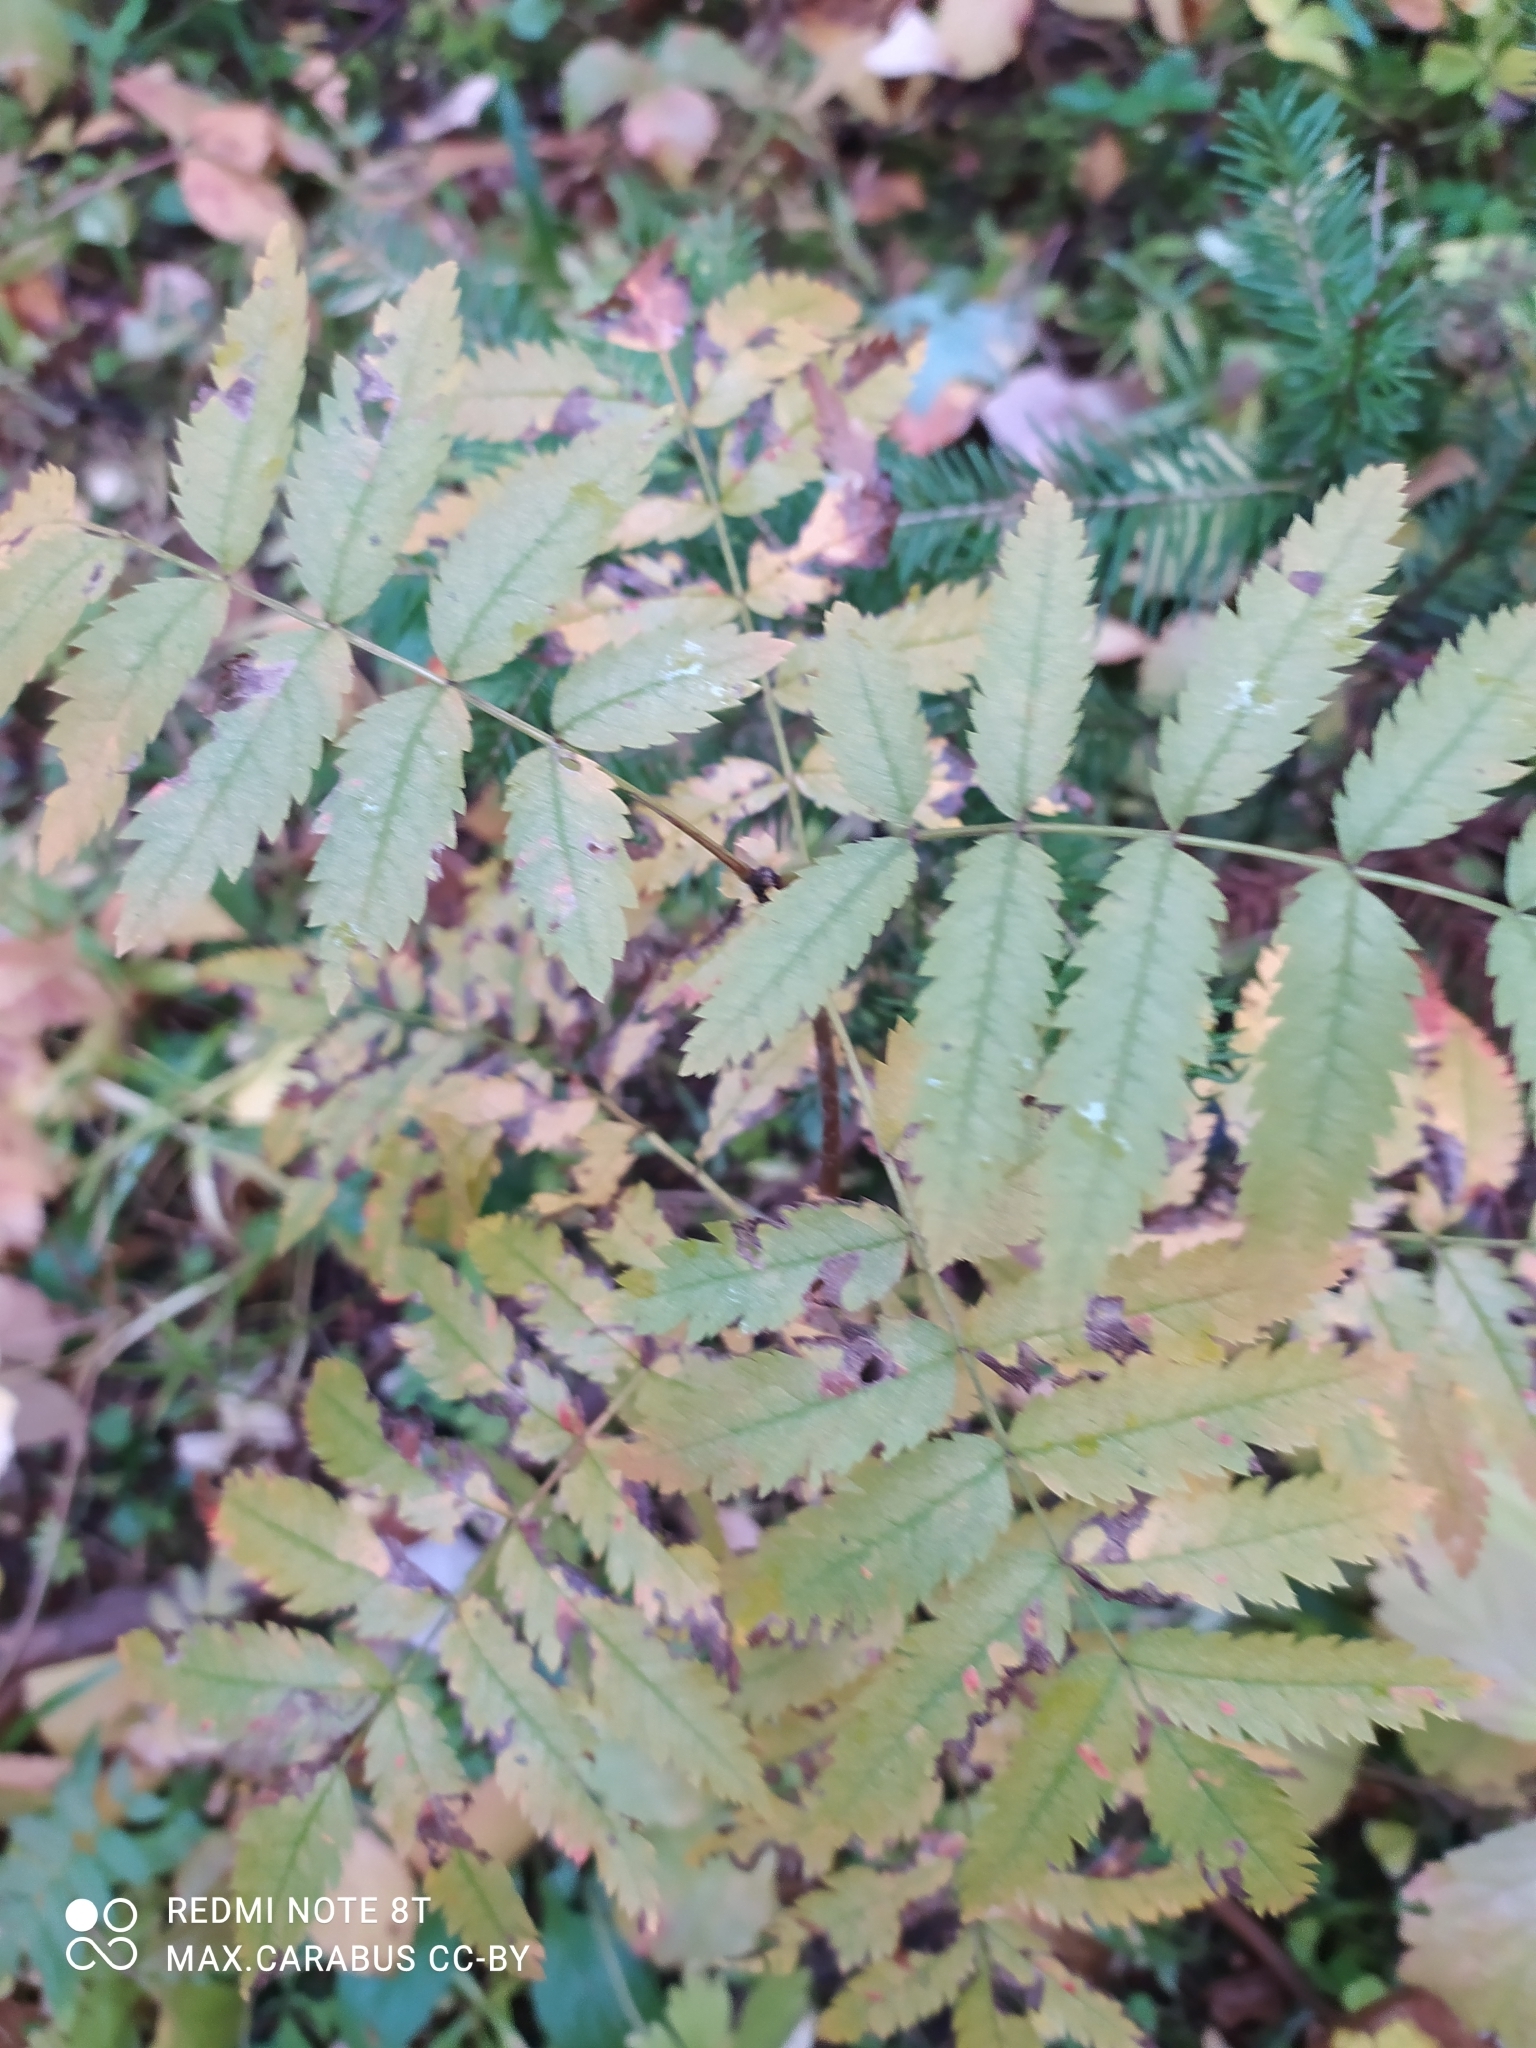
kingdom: Plantae
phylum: Tracheophyta
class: Magnoliopsida
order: Rosales
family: Rosaceae
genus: Sorbus
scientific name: Sorbus aucuparia
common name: Rowan
